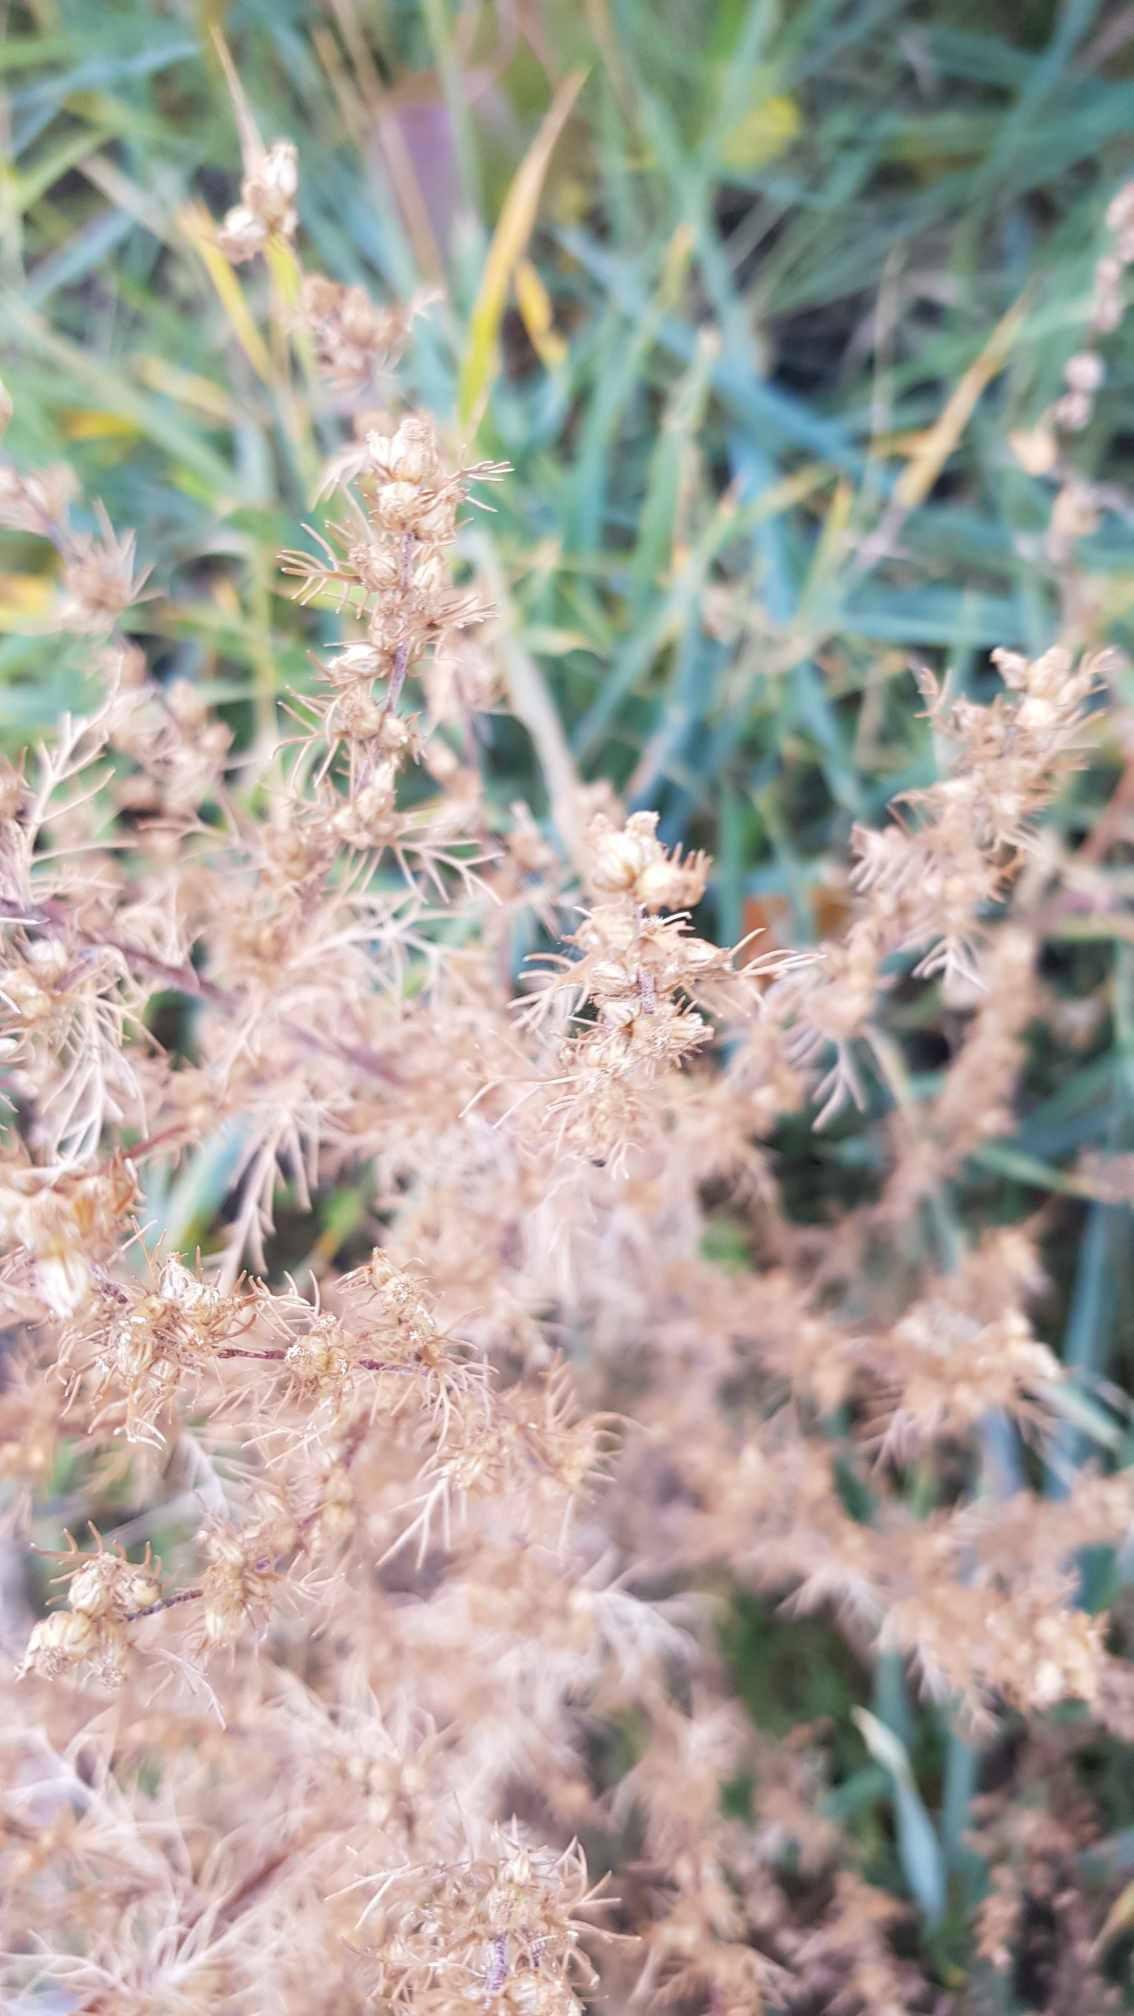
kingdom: Plantae
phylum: Tracheophyta
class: Magnoliopsida
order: Asterales
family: Asteraceae
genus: Neopallasia
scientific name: Neopallasia pectinata
